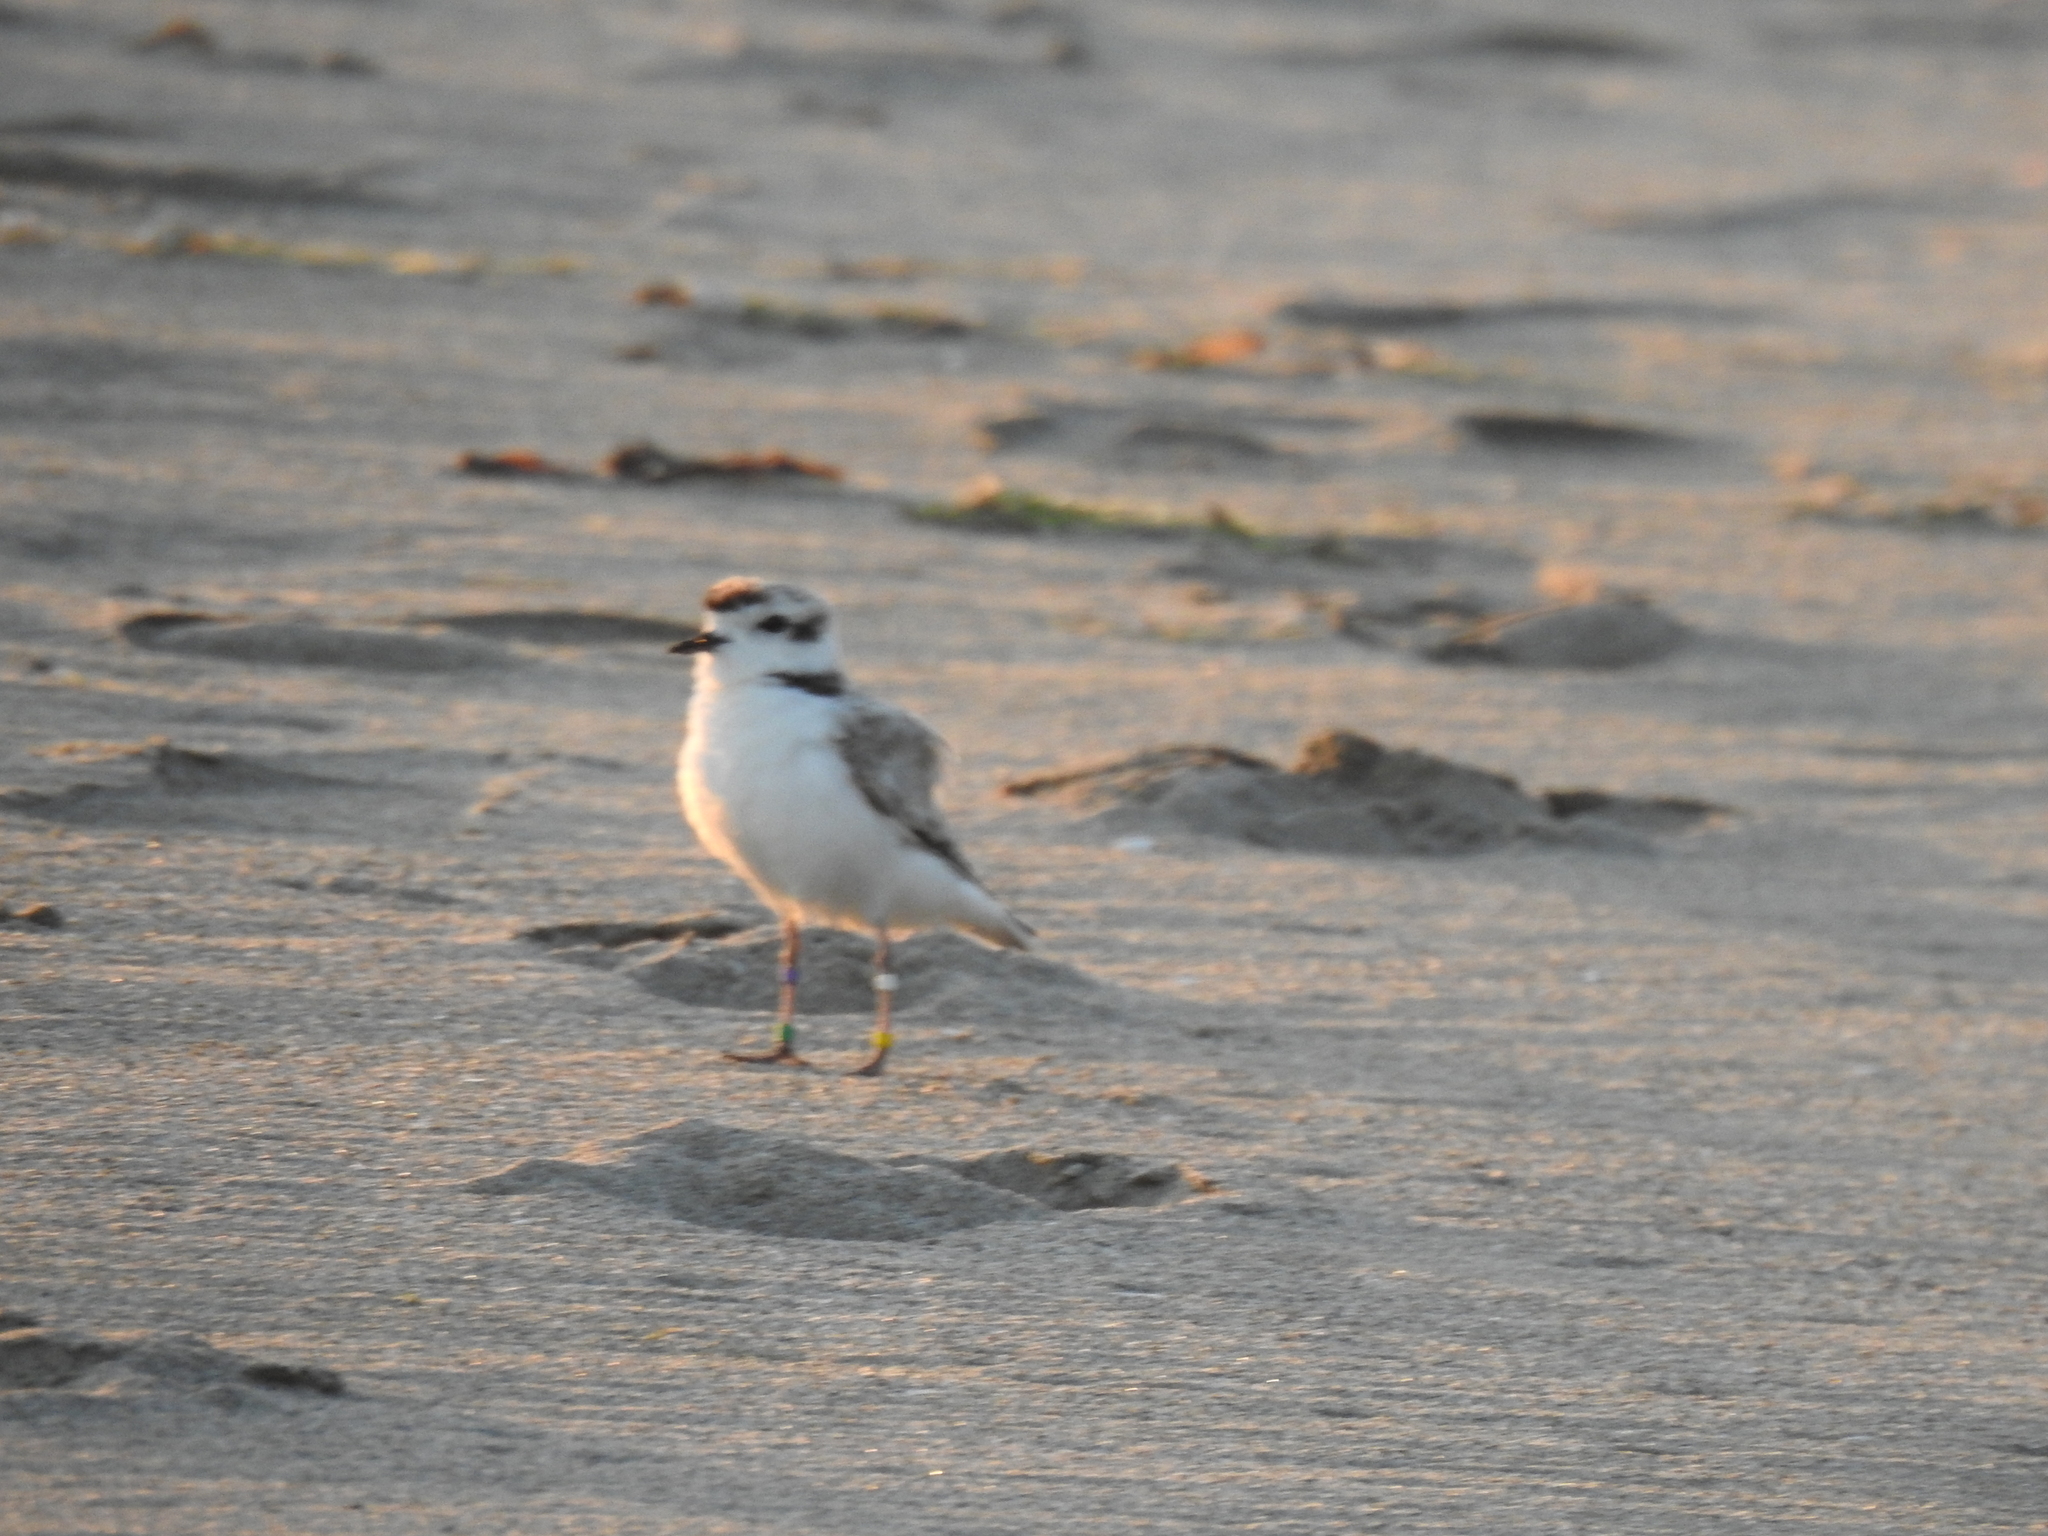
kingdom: Animalia
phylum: Chordata
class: Aves
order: Charadriiformes
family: Charadriidae
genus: Anarhynchus
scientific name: Anarhynchus
